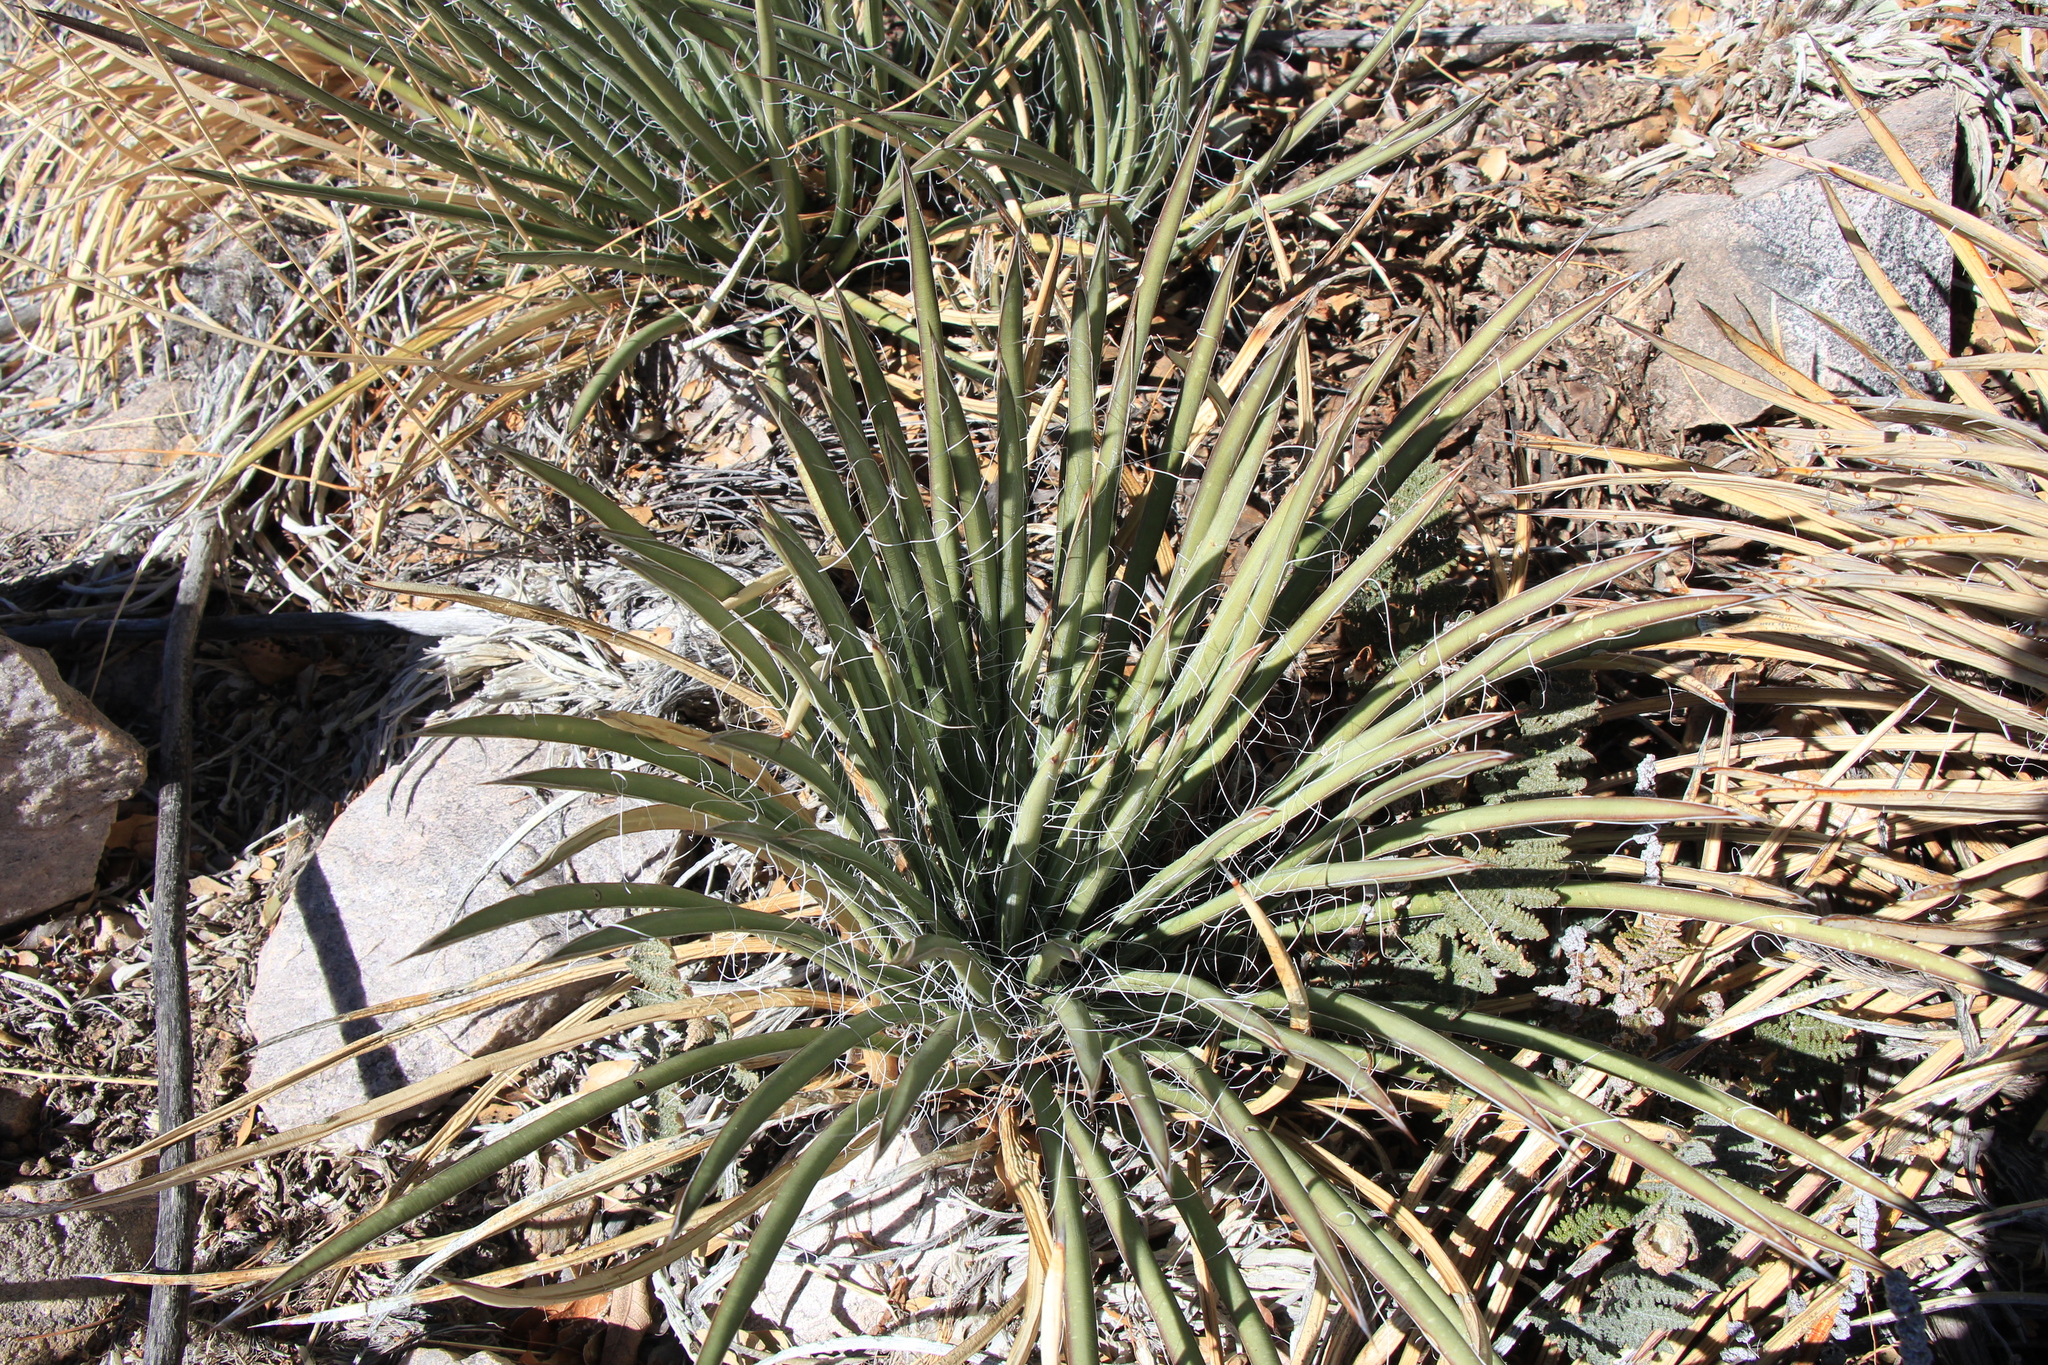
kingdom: Plantae
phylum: Tracheophyta
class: Liliopsida
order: Asparagales
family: Asparagaceae
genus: Agave
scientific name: Agave schottii
